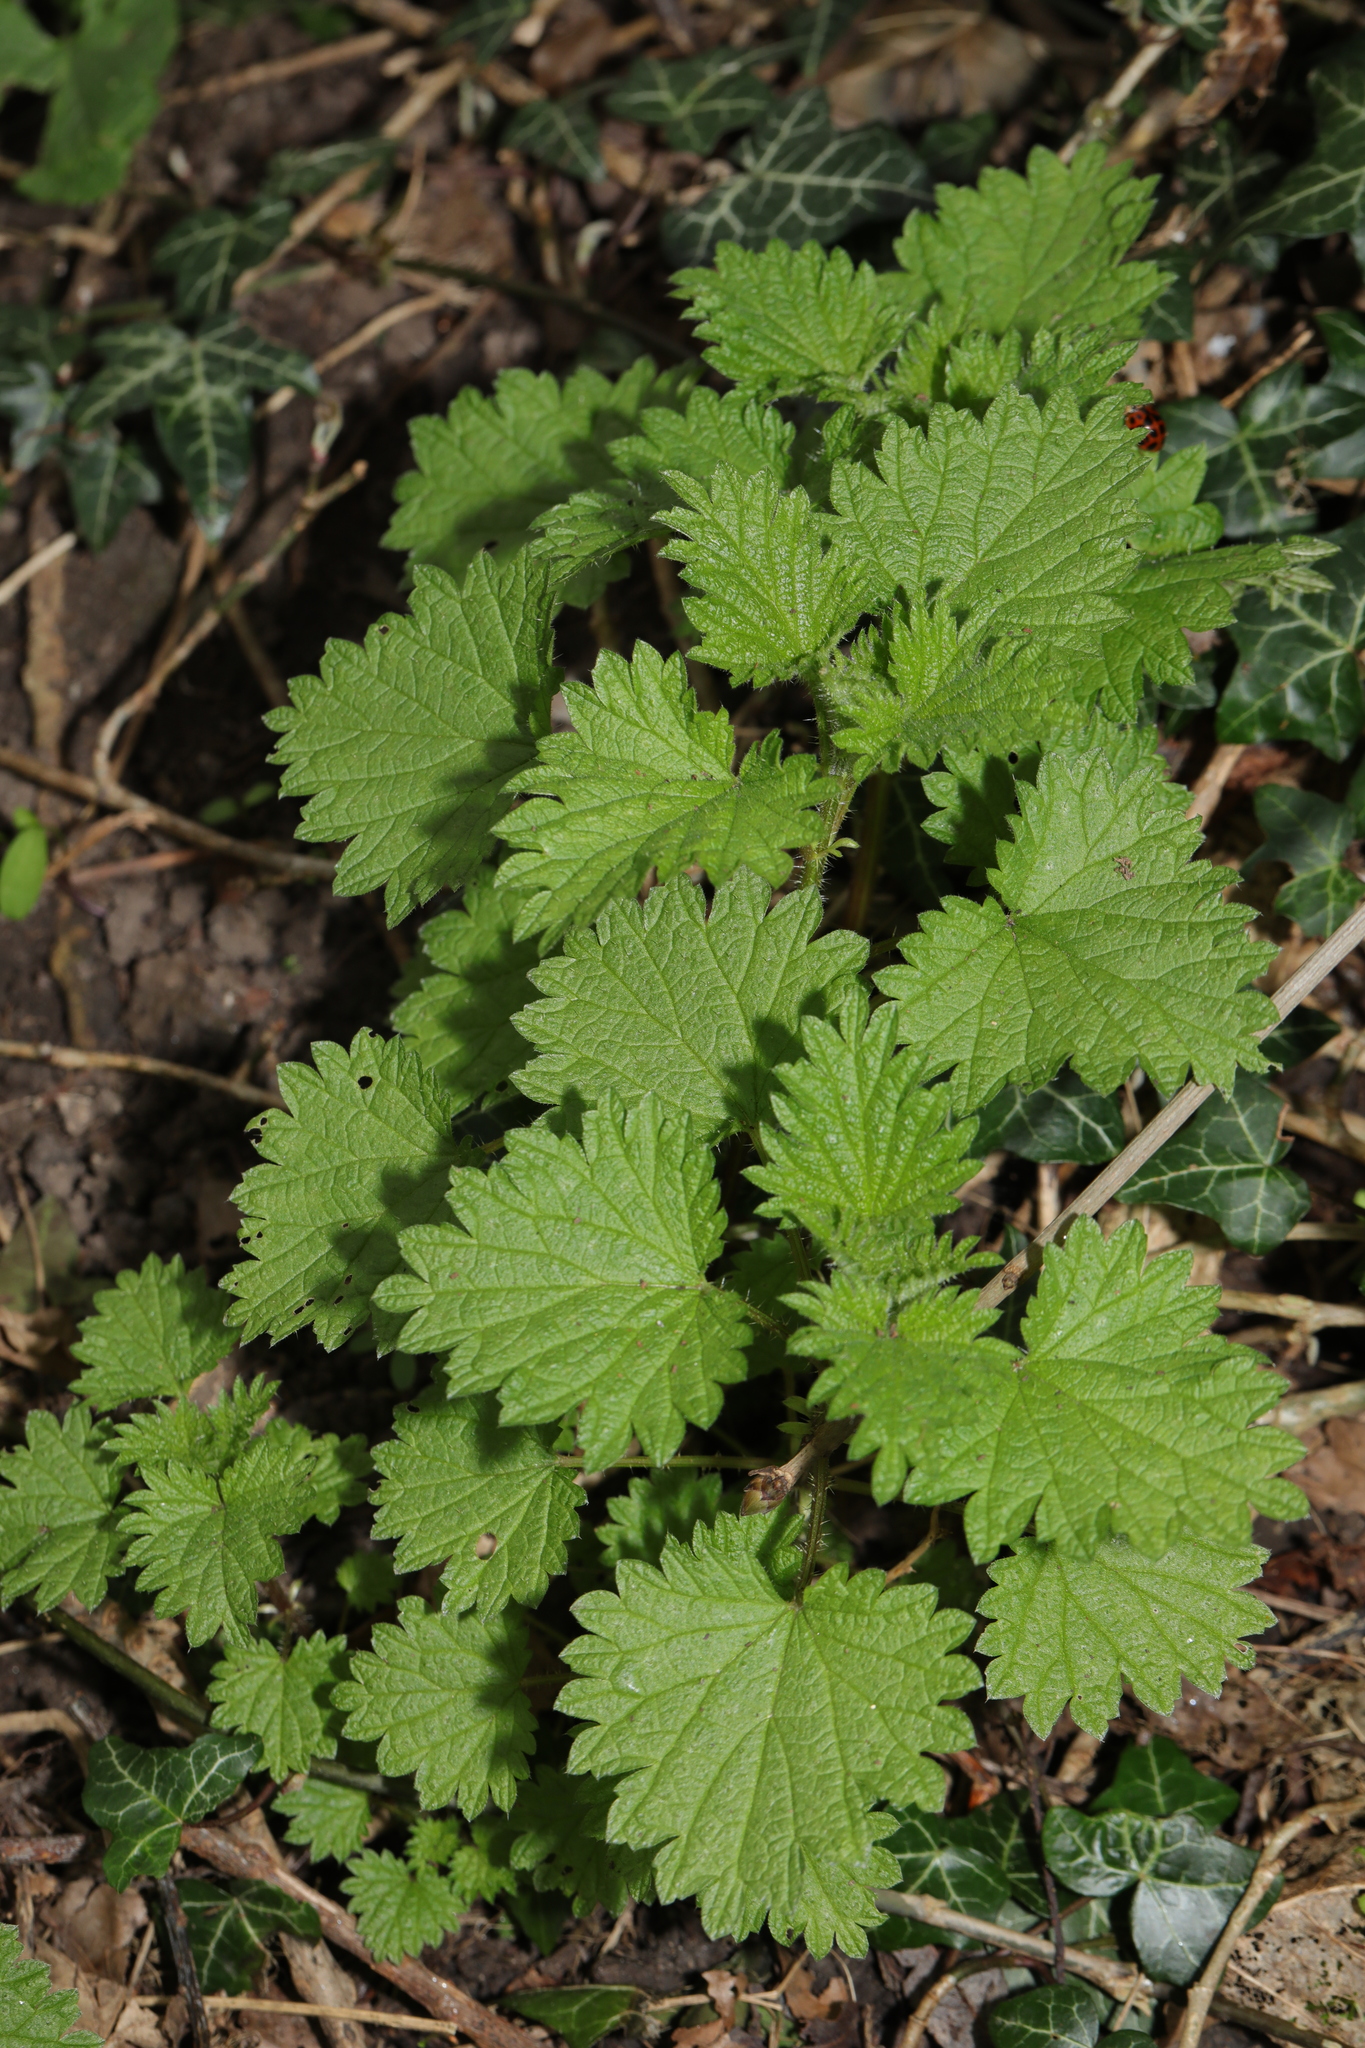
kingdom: Plantae
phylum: Tracheophyta
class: Magnoliopsida
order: Rosales
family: Urticaceae
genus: Urtica
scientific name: Urtica dioica
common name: Common nettle
